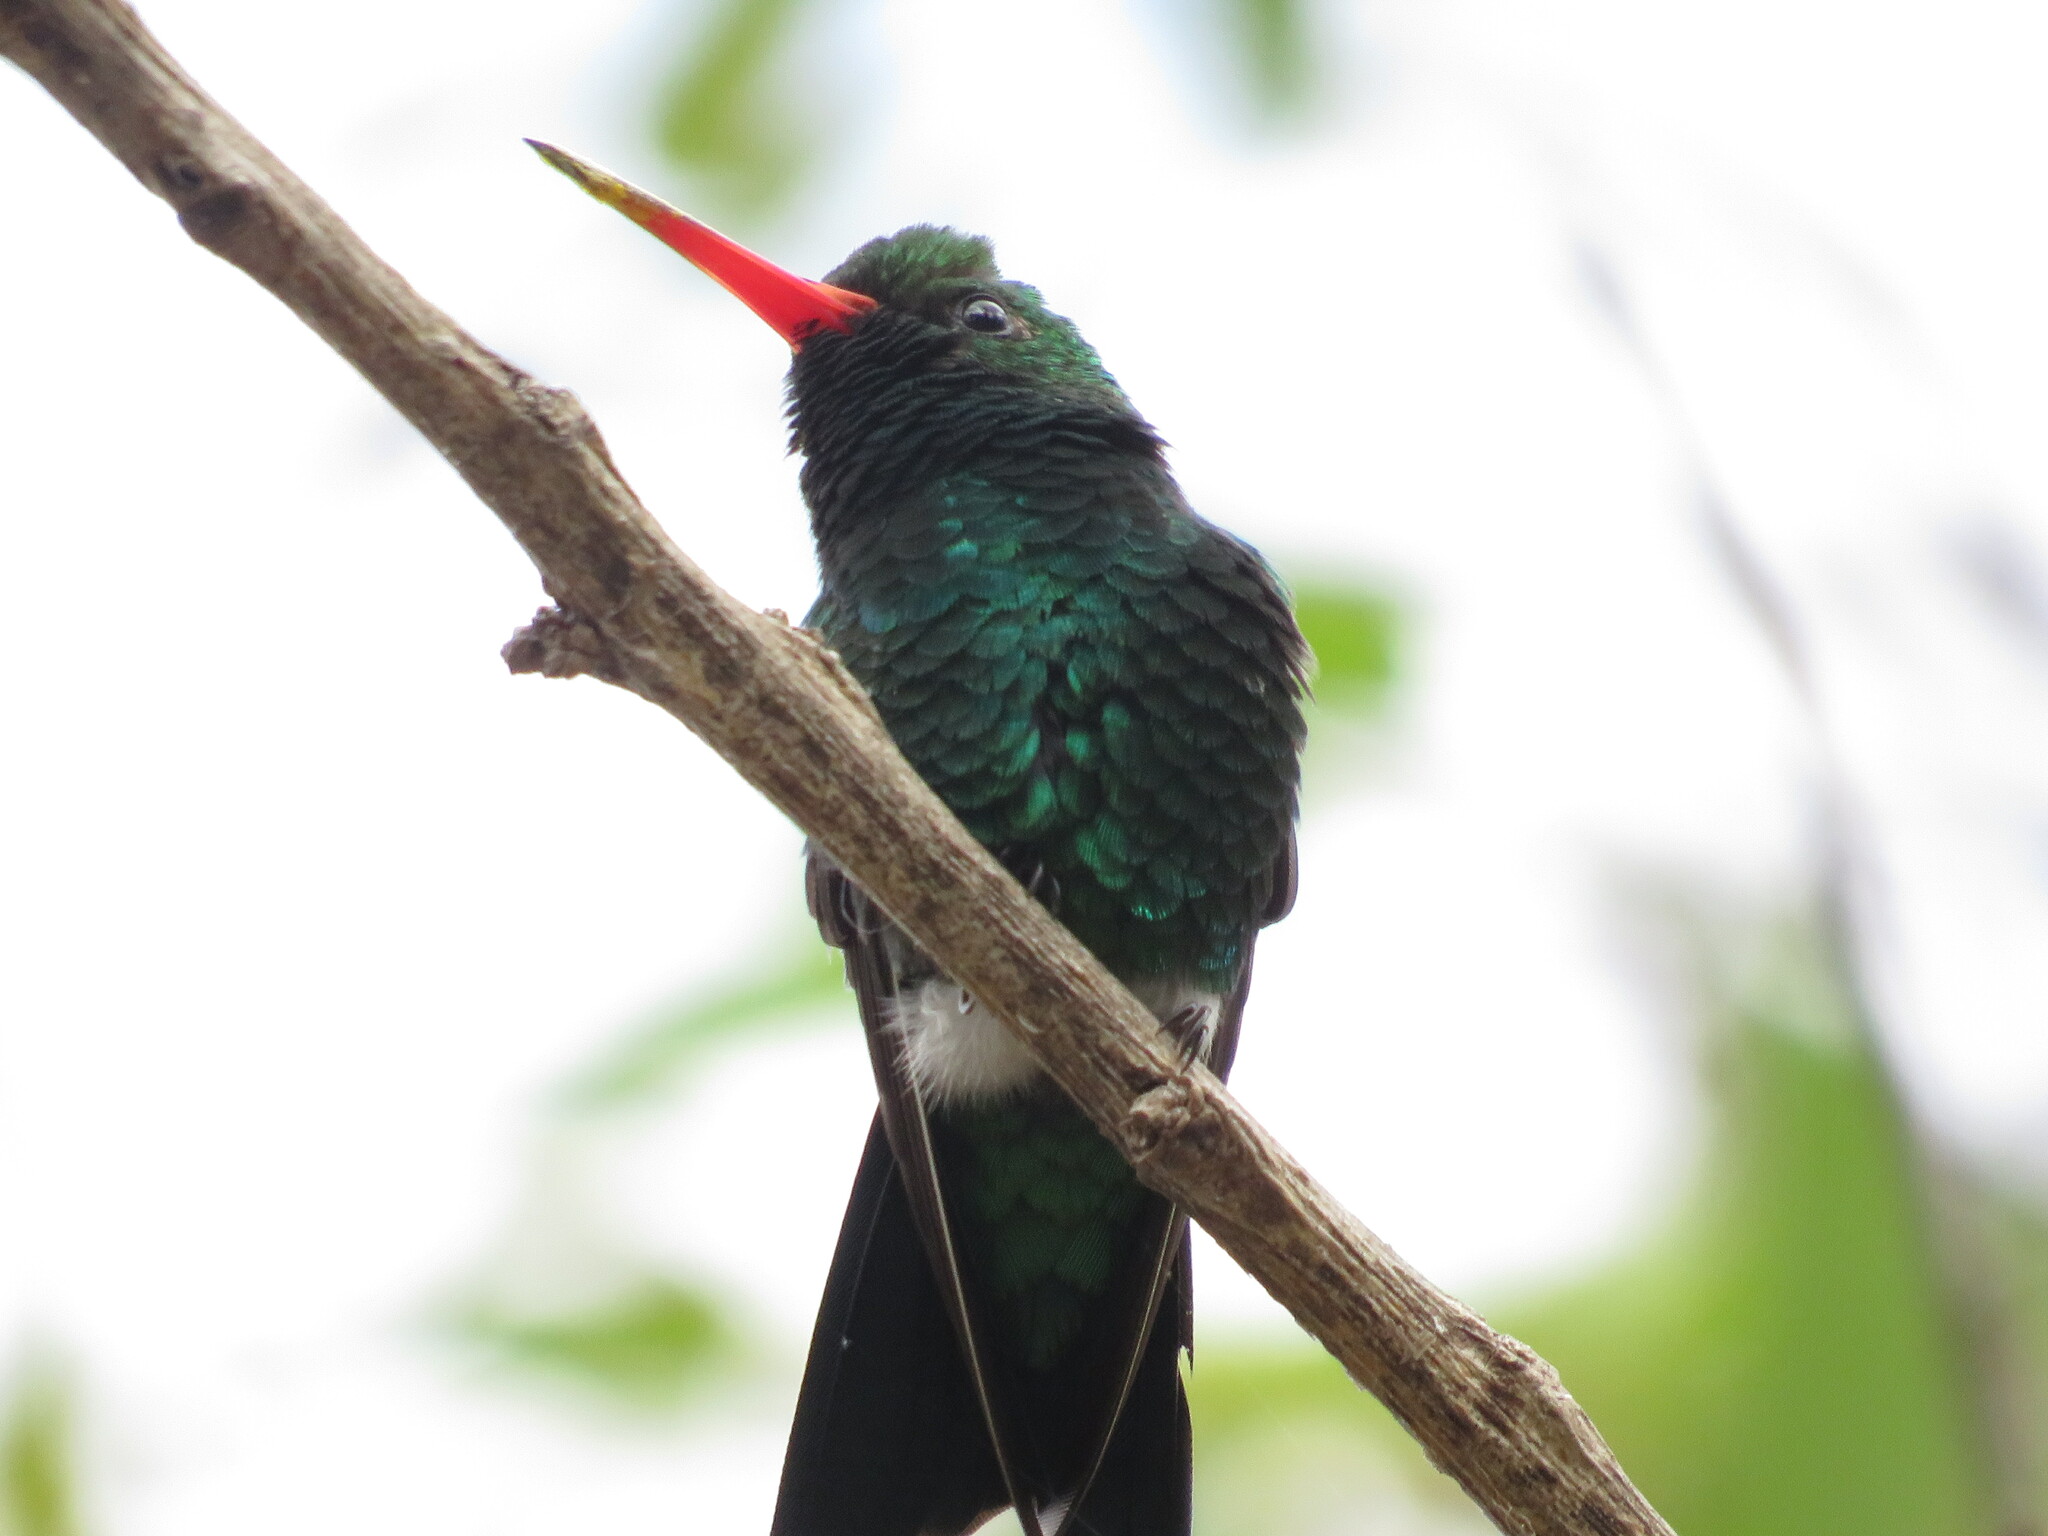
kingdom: Animalia
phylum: Chordata
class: Aves
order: Apodiformes
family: Trochilidae
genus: Chlorostilbon
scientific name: Chlorostilbon lucidus
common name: Glittering-bellied emerald
